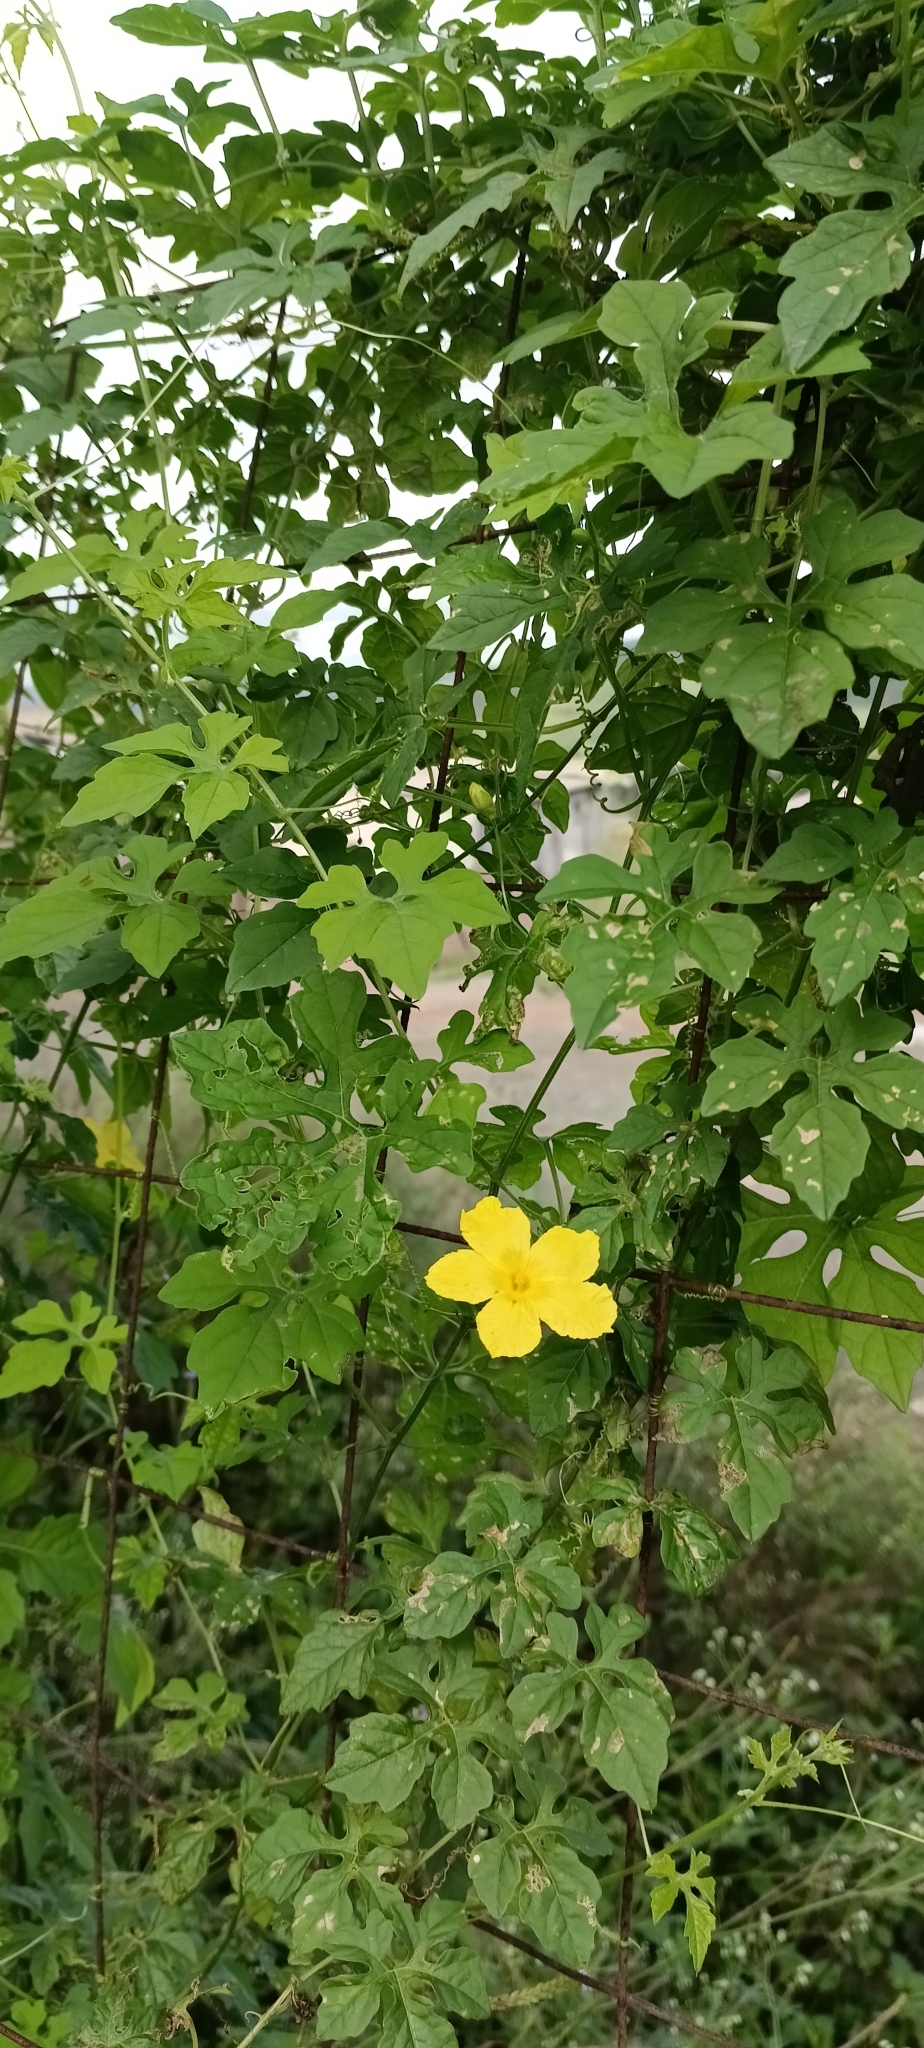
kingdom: Plantae
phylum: Tracheophyta
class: Magnoliopsida
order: Cucurbitales
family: Cucurbitaceae
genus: Momordica
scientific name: Momordica charantia
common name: Balsampear
